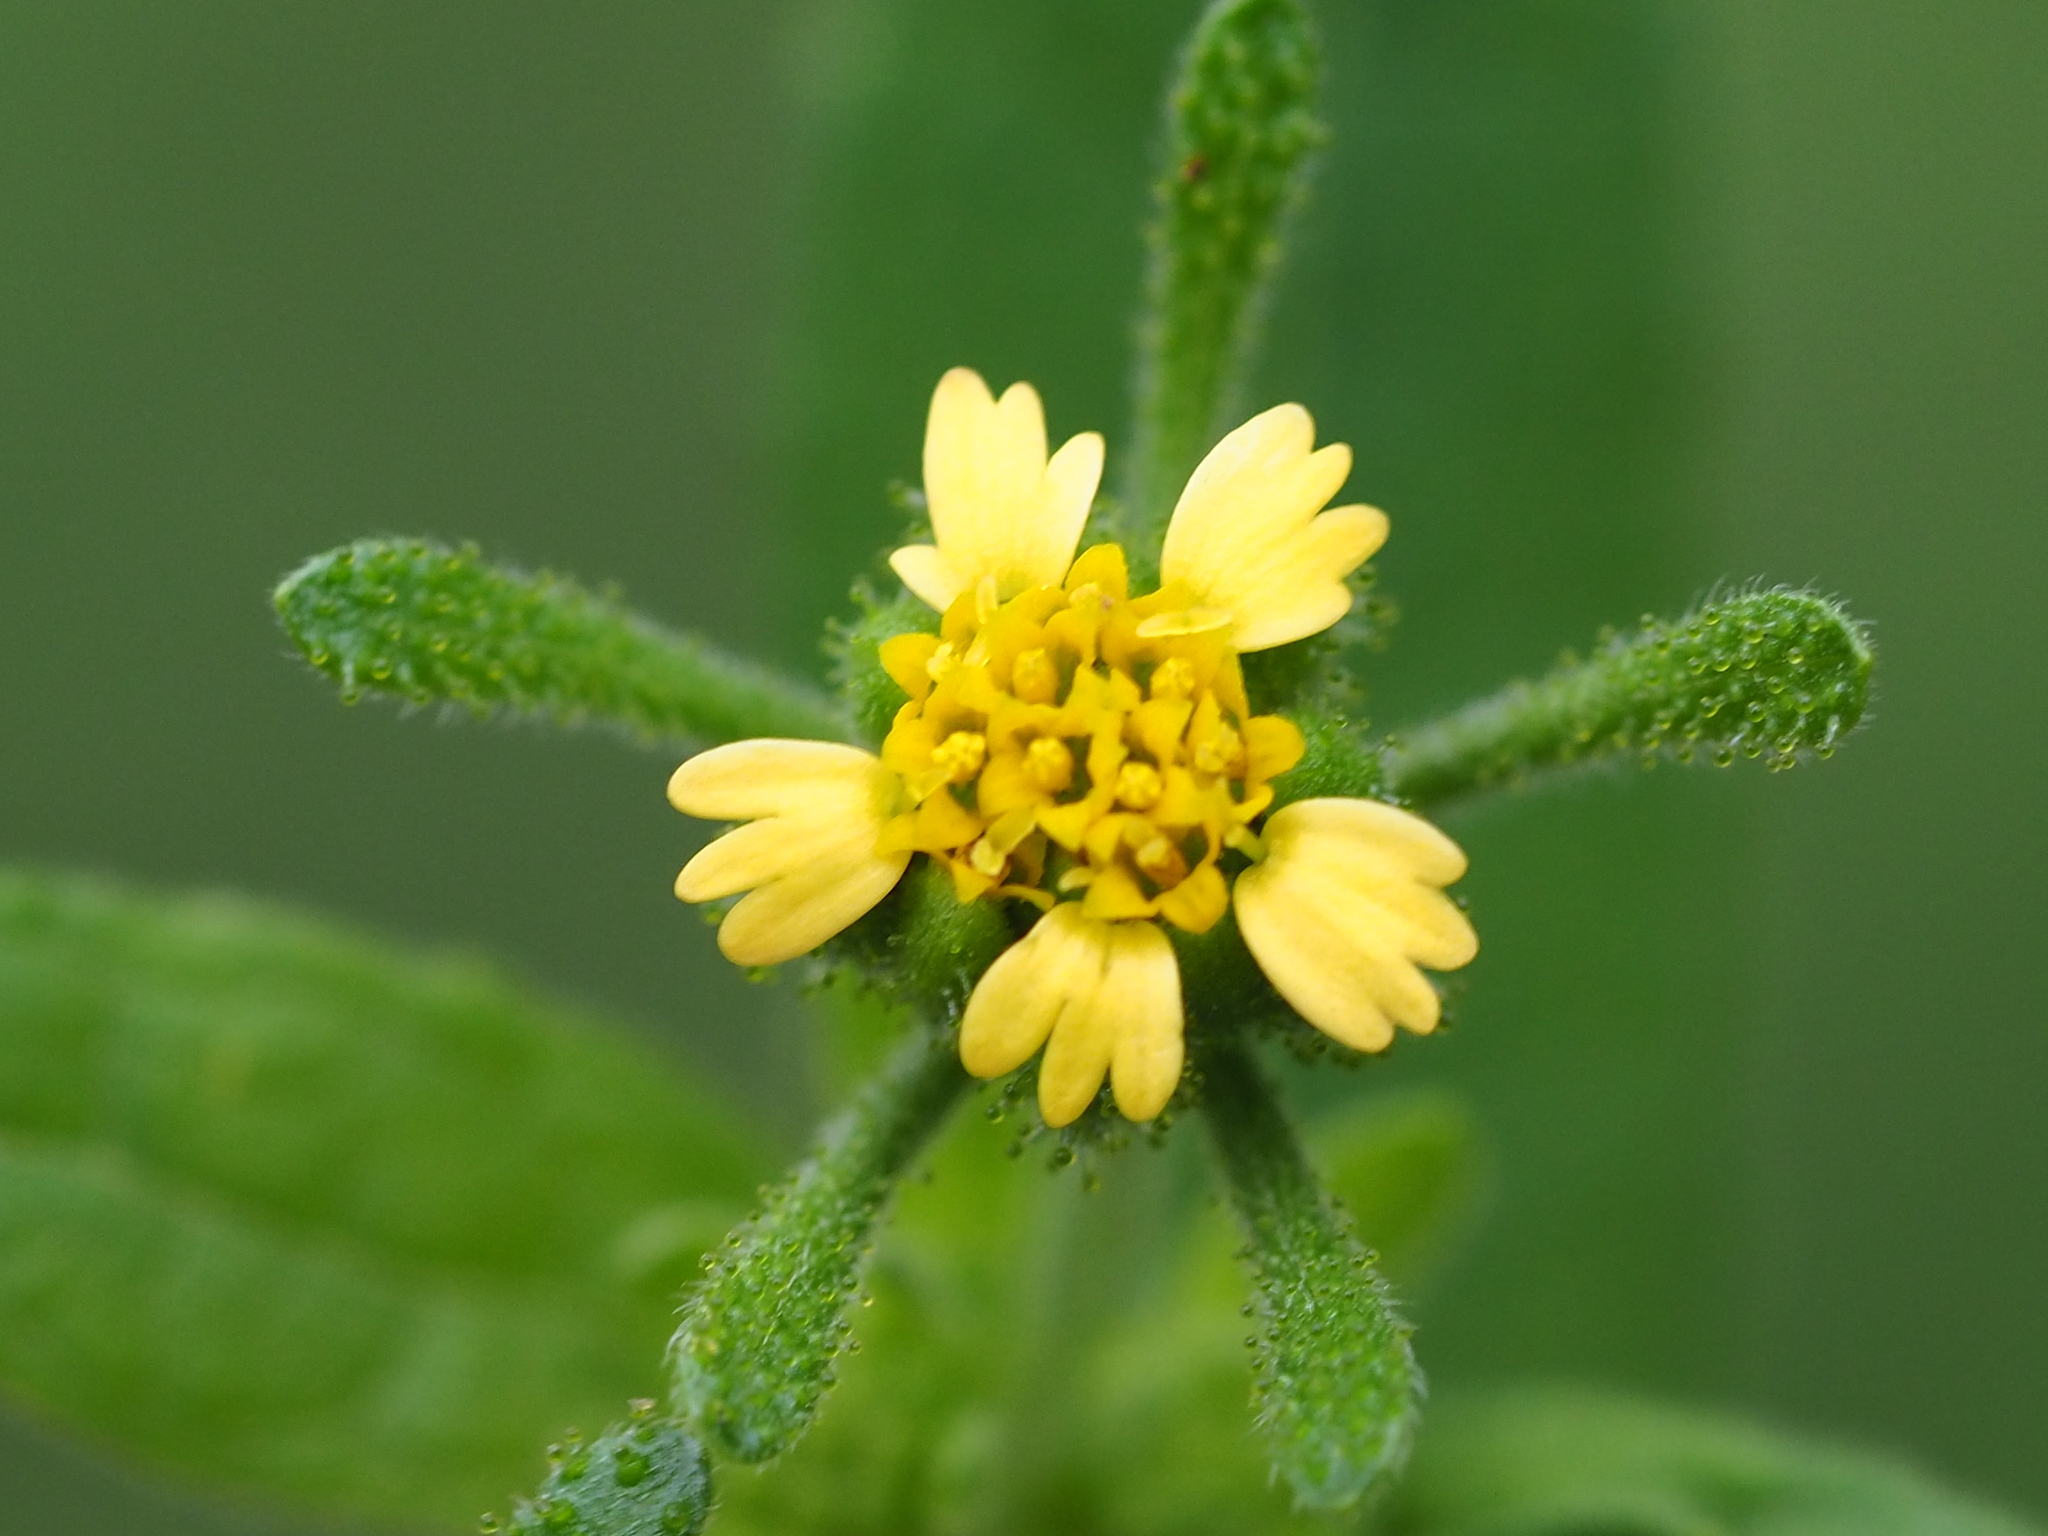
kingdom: Plantae
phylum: Tracheophyta
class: Magnoliopsida
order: Asterales
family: Asteraceae
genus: Sigesbeckia
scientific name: Sigesbeckia orientalis
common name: Eastern st paul's-wort
